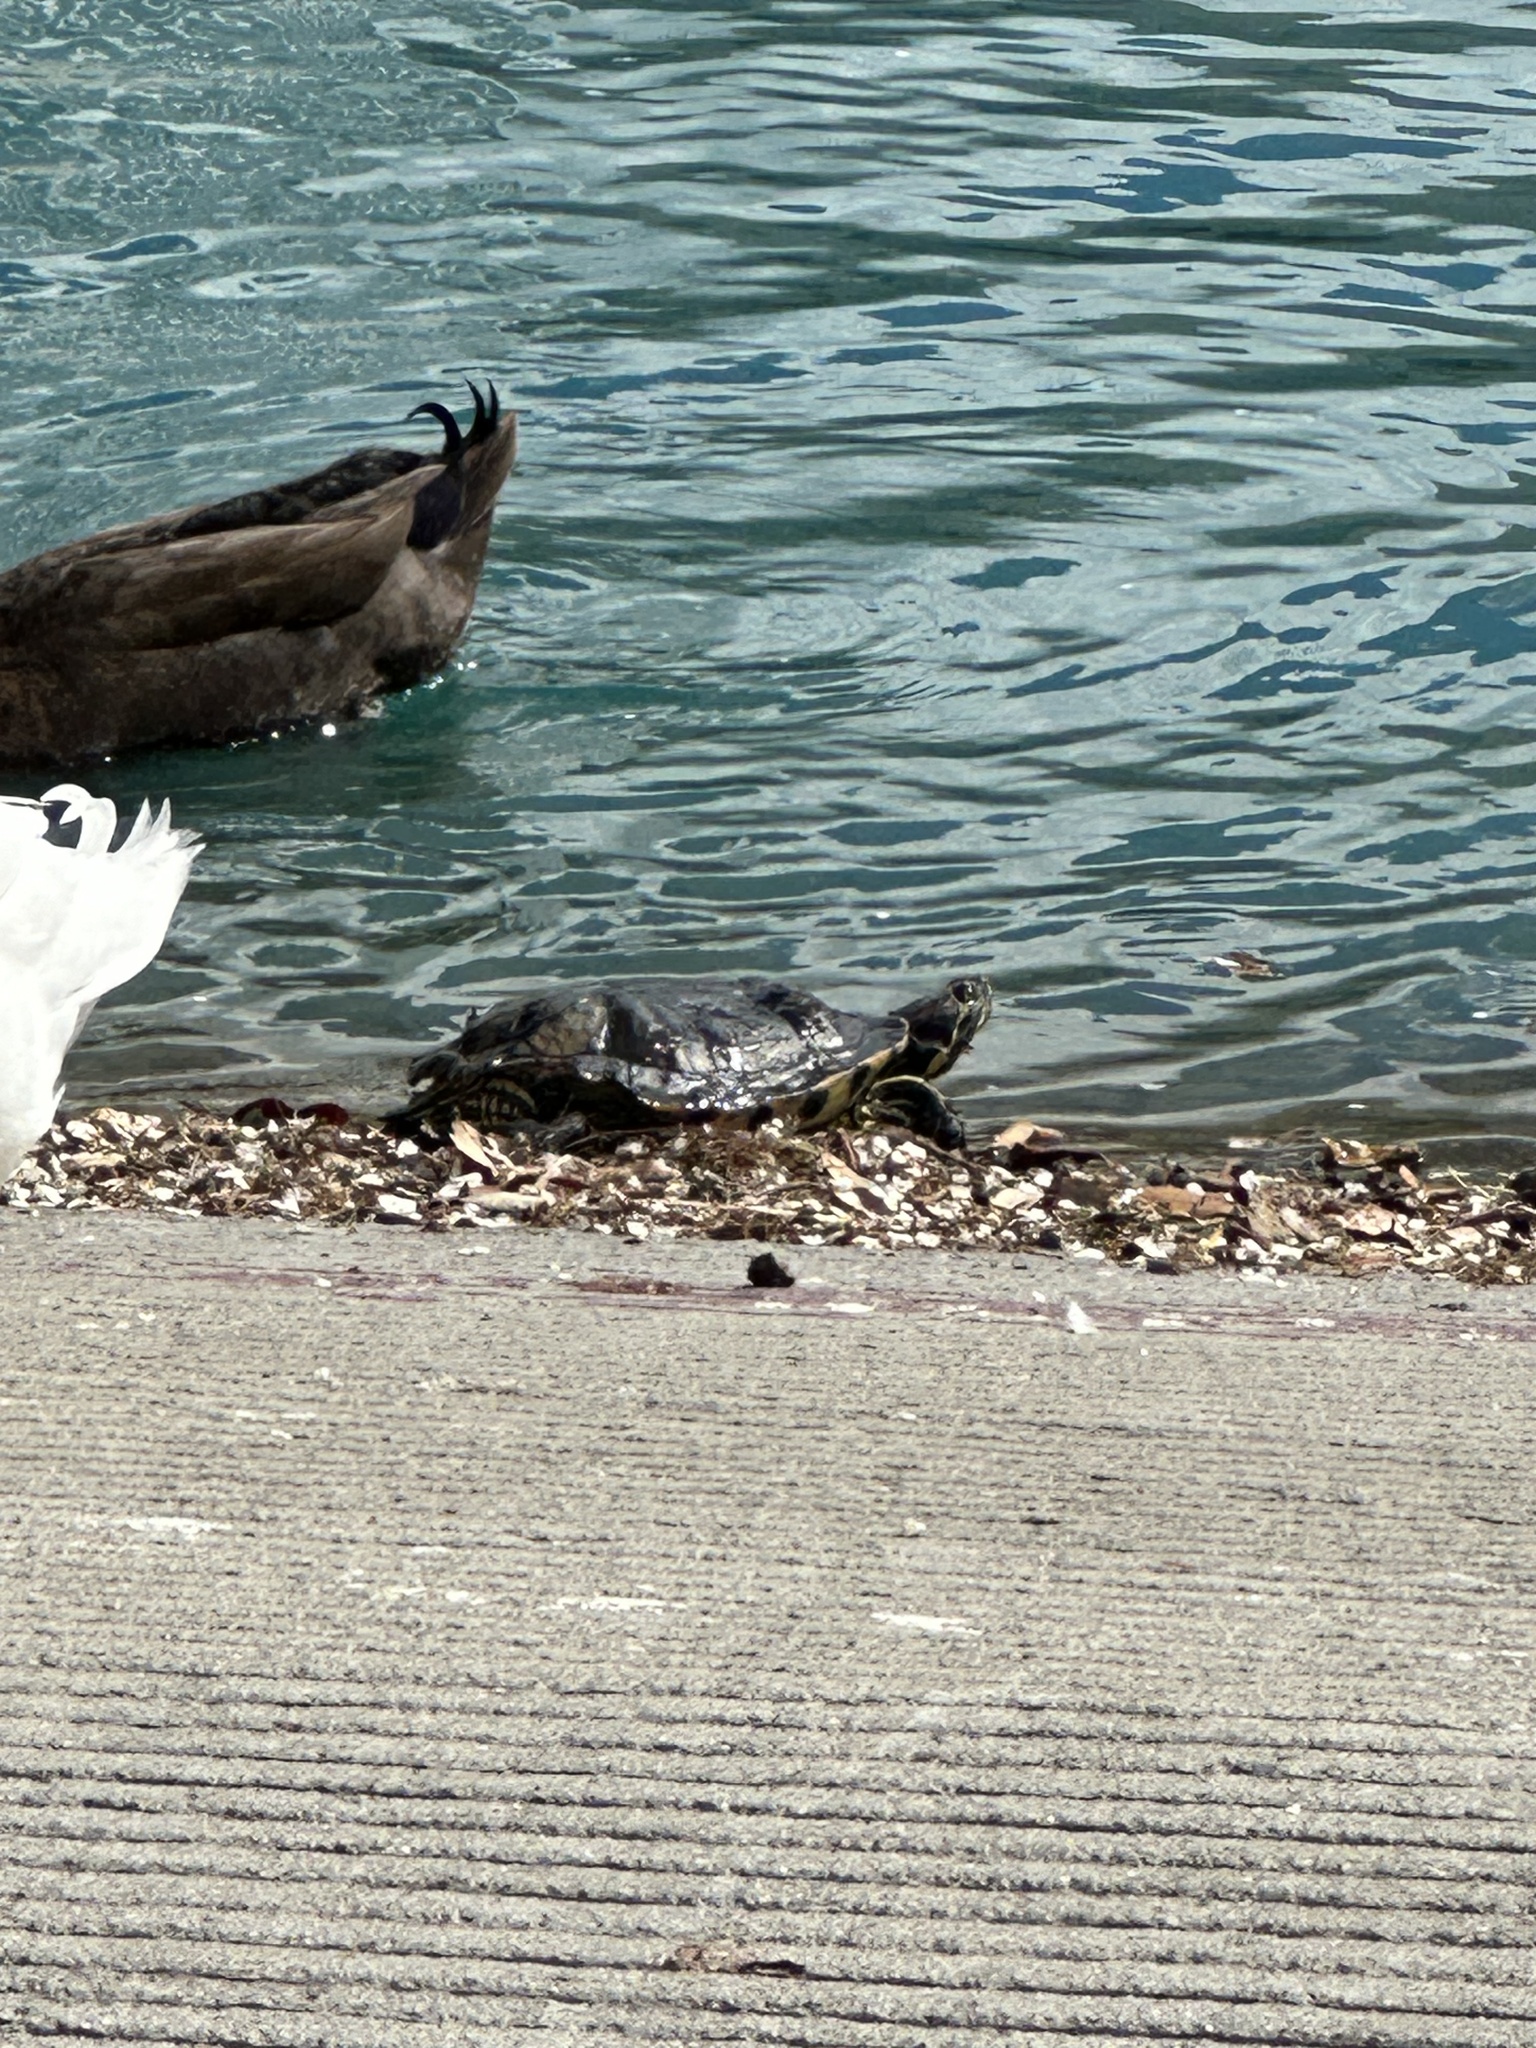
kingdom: Animalia
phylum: Chordata
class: Testudines
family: Emydidae
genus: Trachemys
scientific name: Trachemys scripta
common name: Slider
